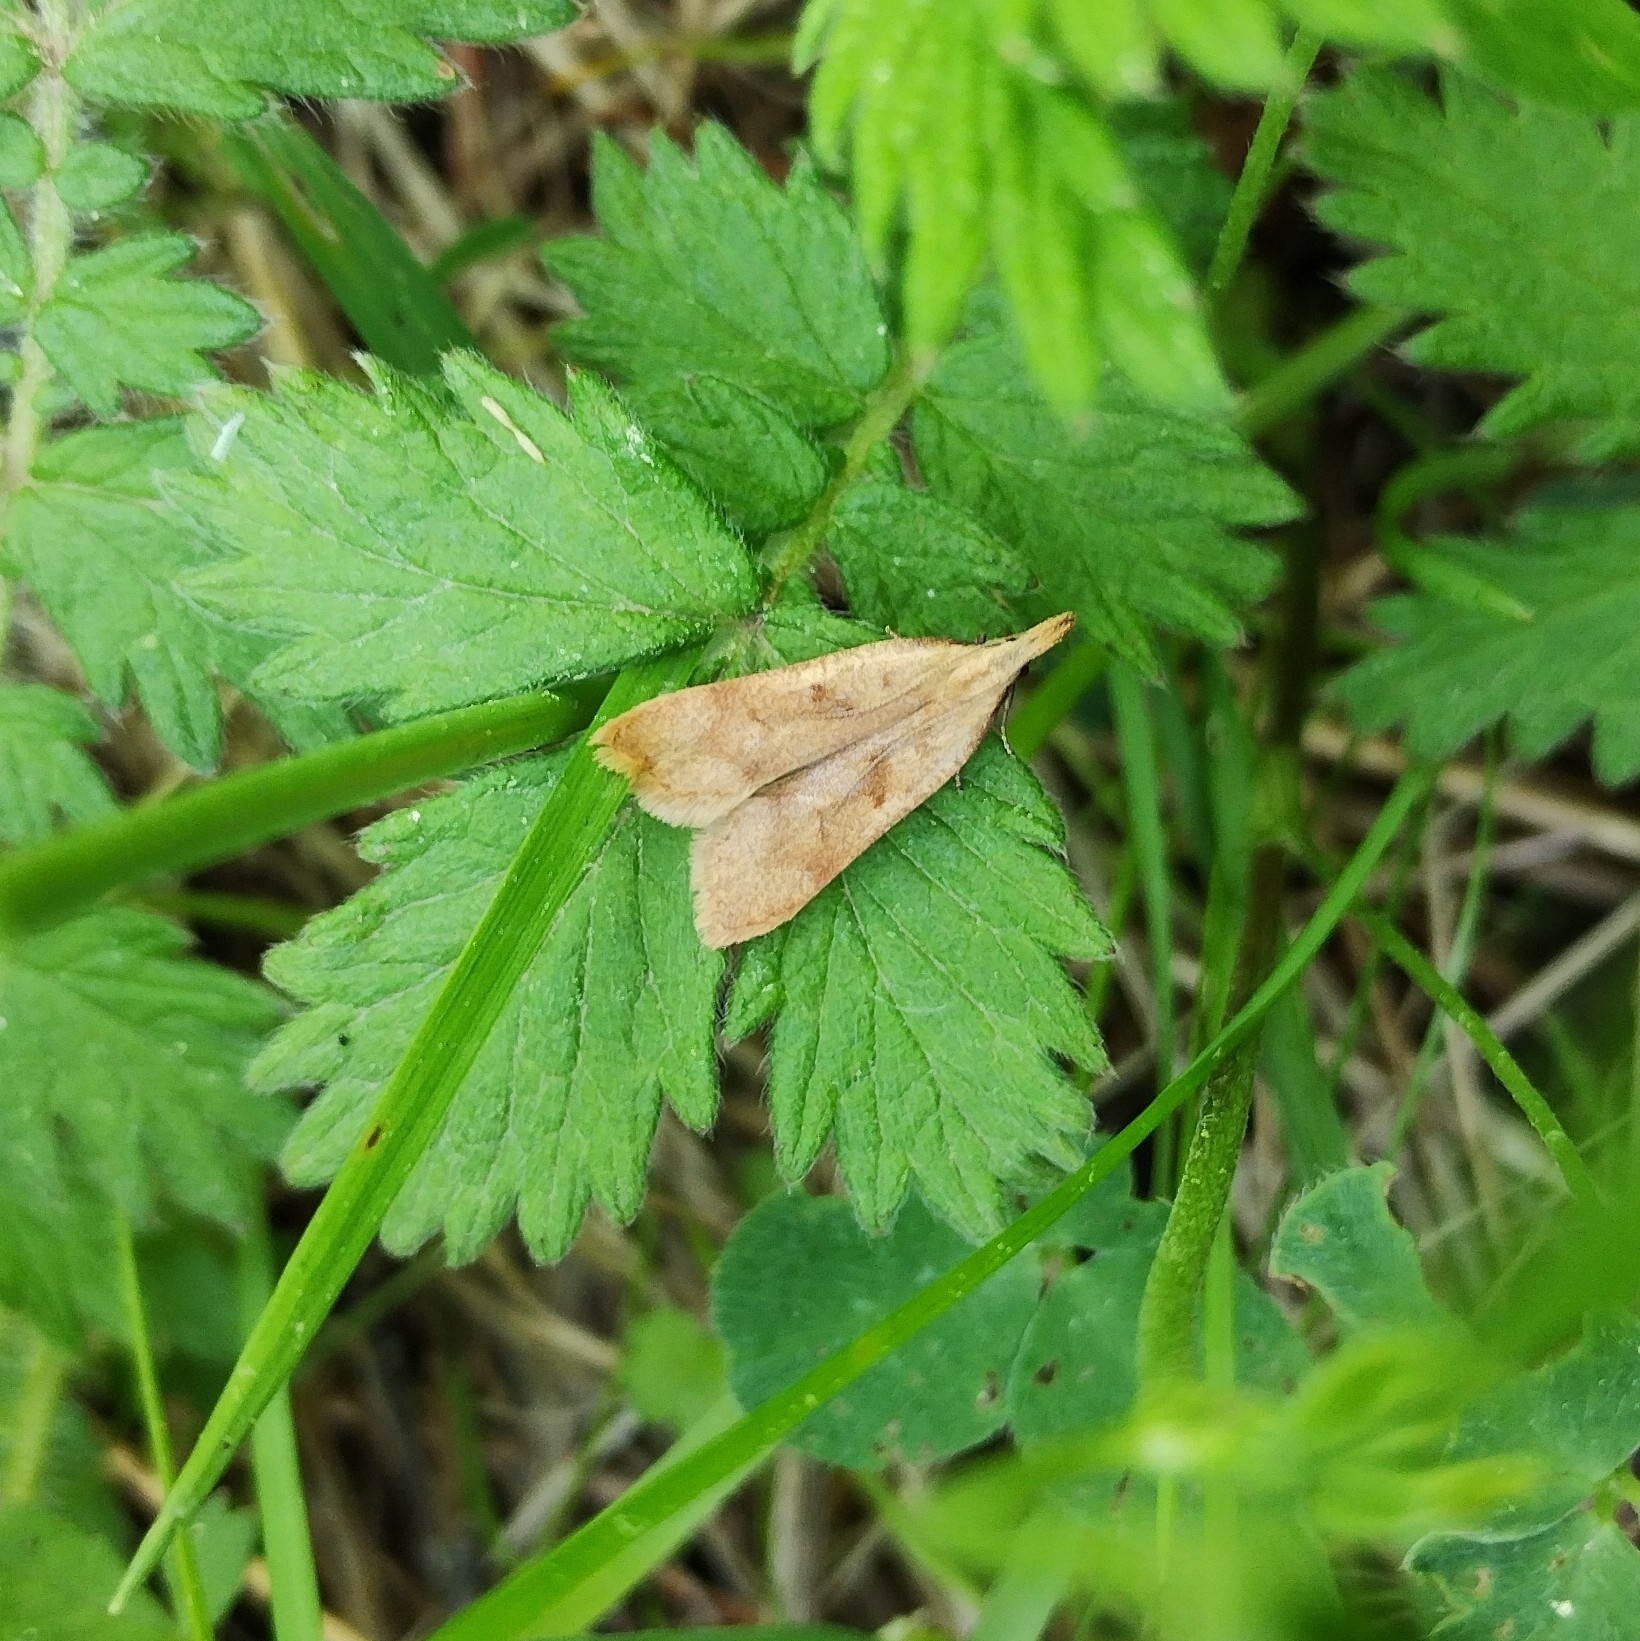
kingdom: Animalia
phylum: Arthropoda
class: Insecta
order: Lepidoptera
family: Gelechiidae
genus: Dichomeris
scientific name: Dichomeris derasella
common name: Blackthorn crest
